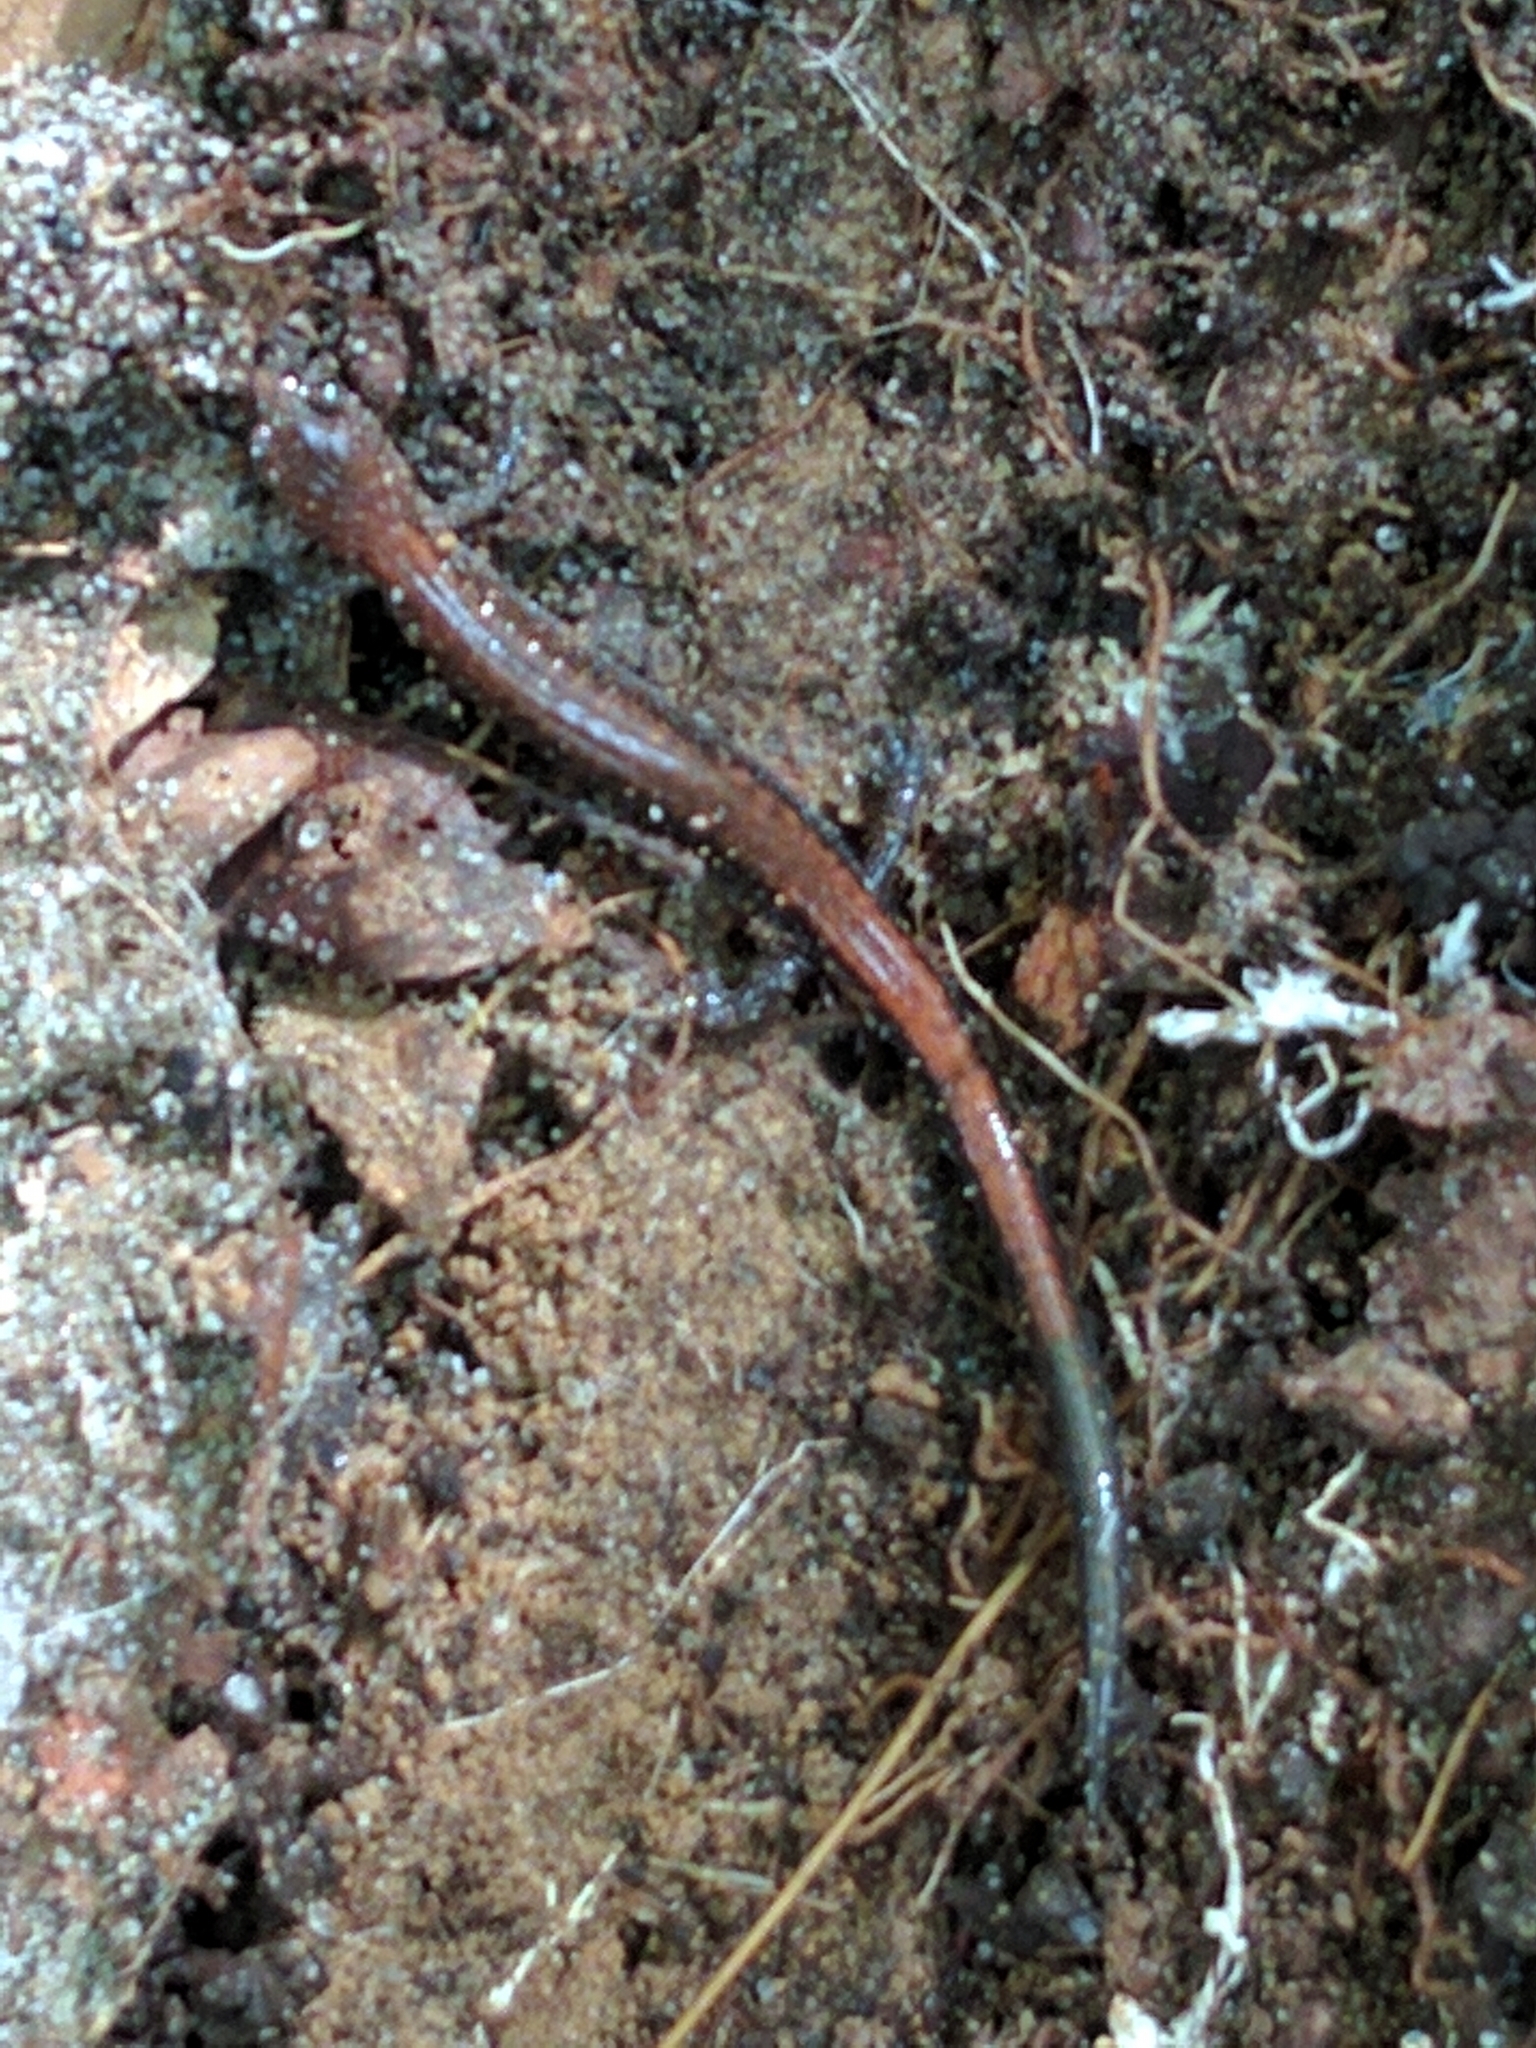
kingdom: Animalia
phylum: Chordata
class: Amphibia
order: Caudata
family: Plethodontidae
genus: Plethodon
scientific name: Plethodon cinereus
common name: Redback salamander
